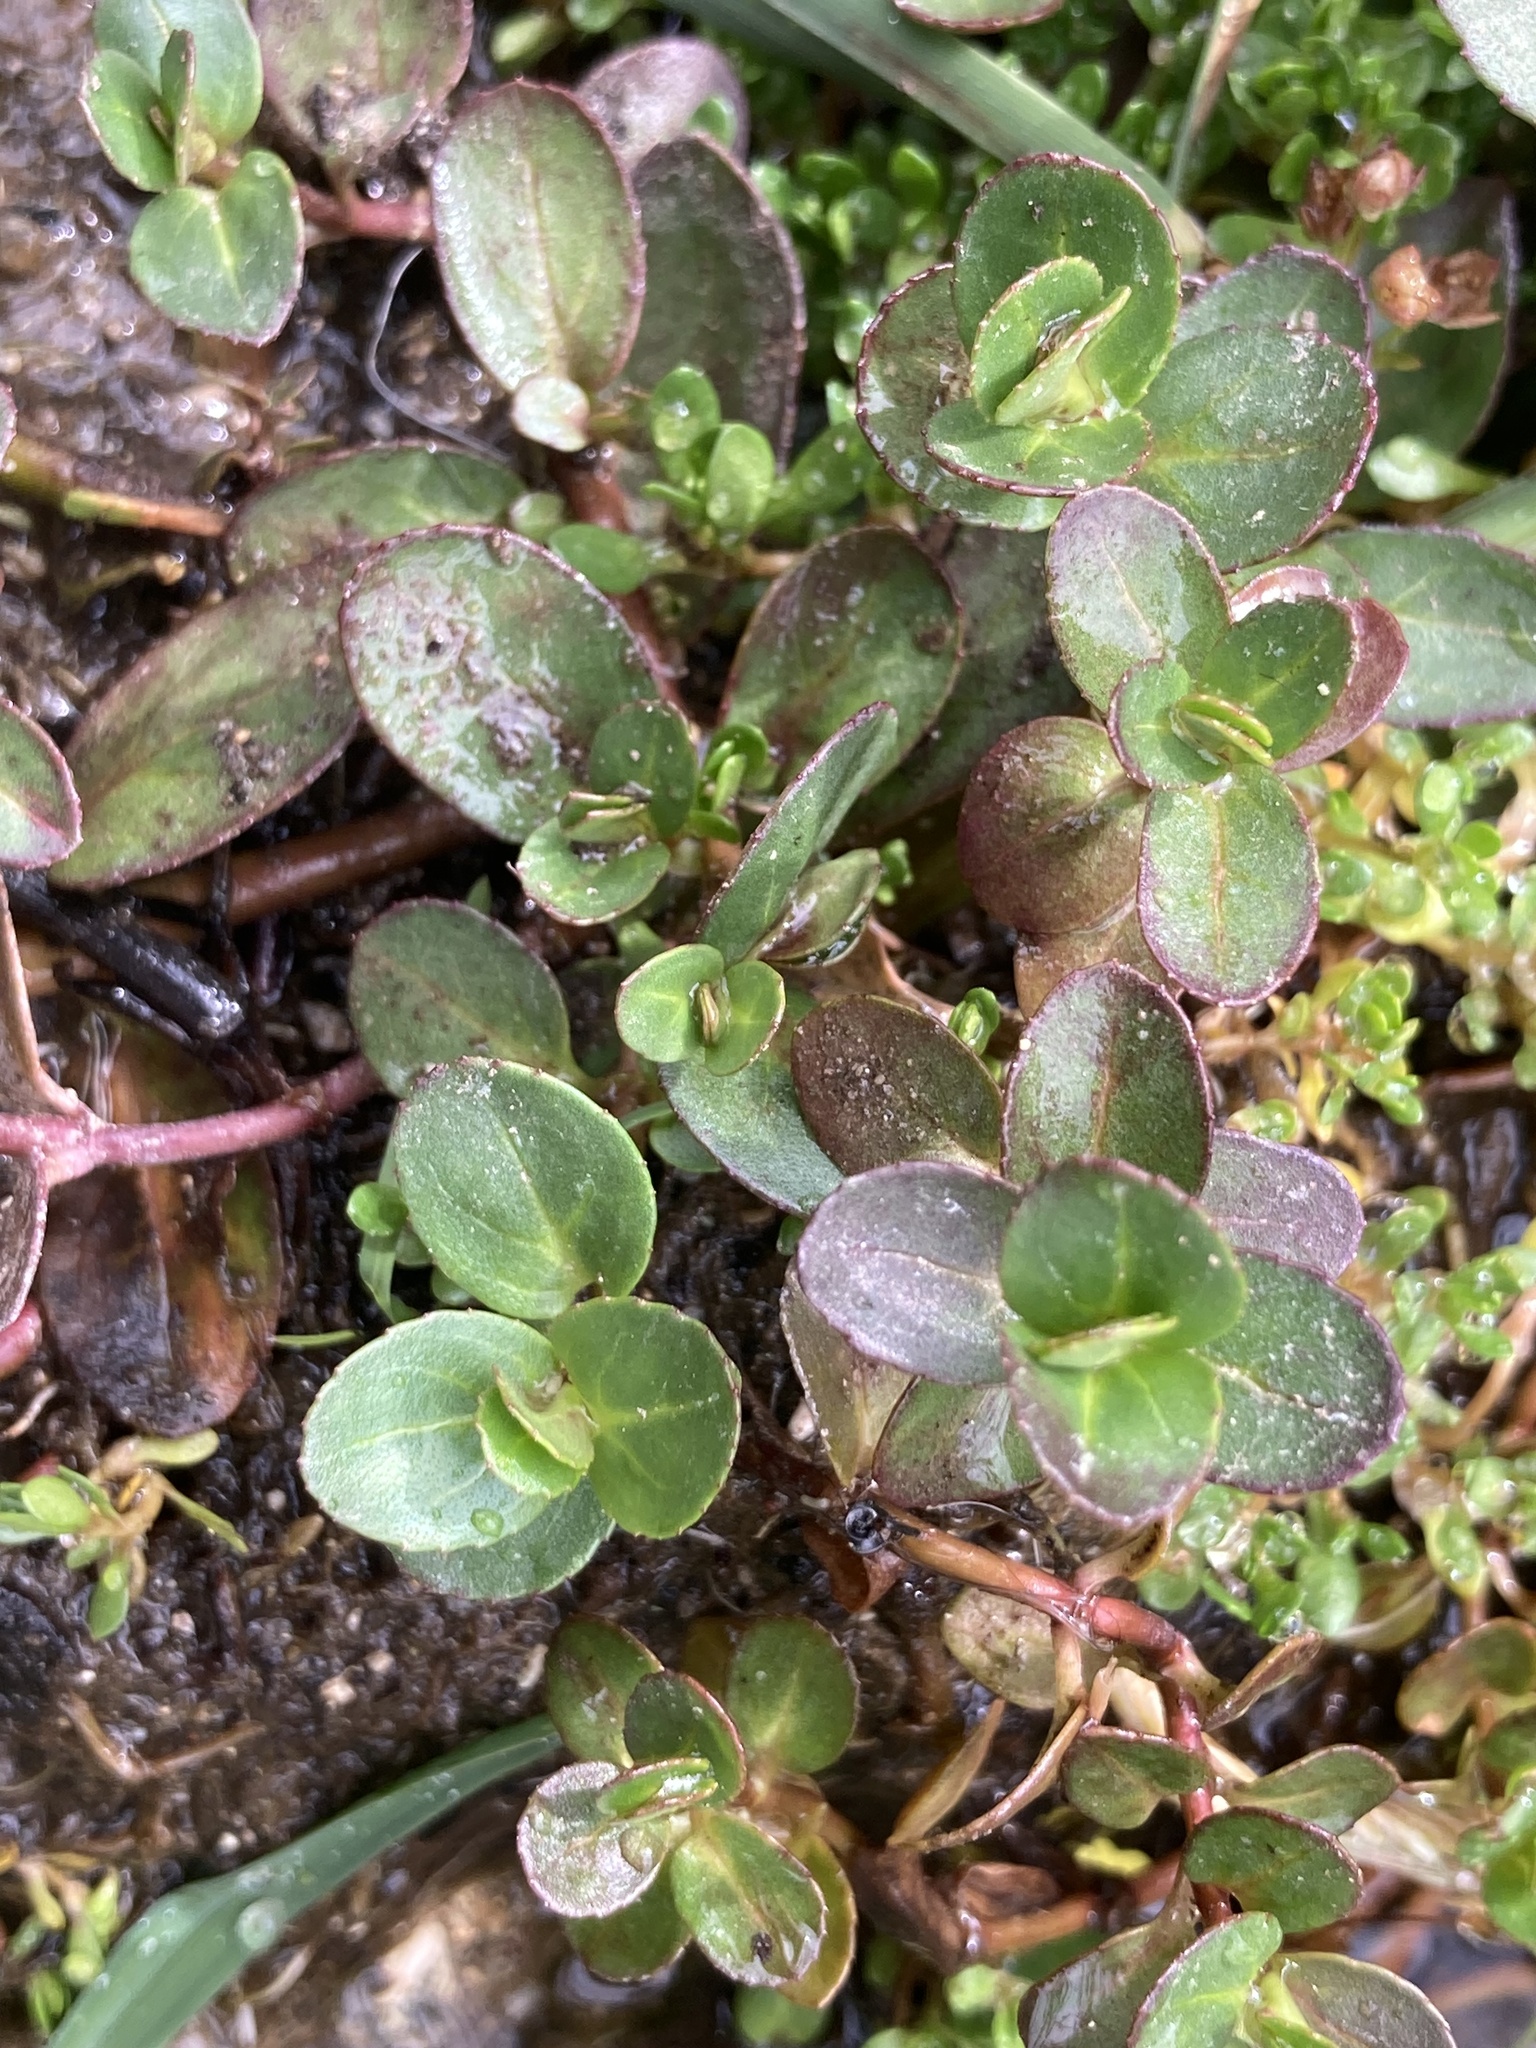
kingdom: Plantae
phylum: Tracheophyta
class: Magnoliopsida
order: Lamiales
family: Plantaginaceae
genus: Veronica
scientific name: Veronica beccabunga
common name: Brooklime
